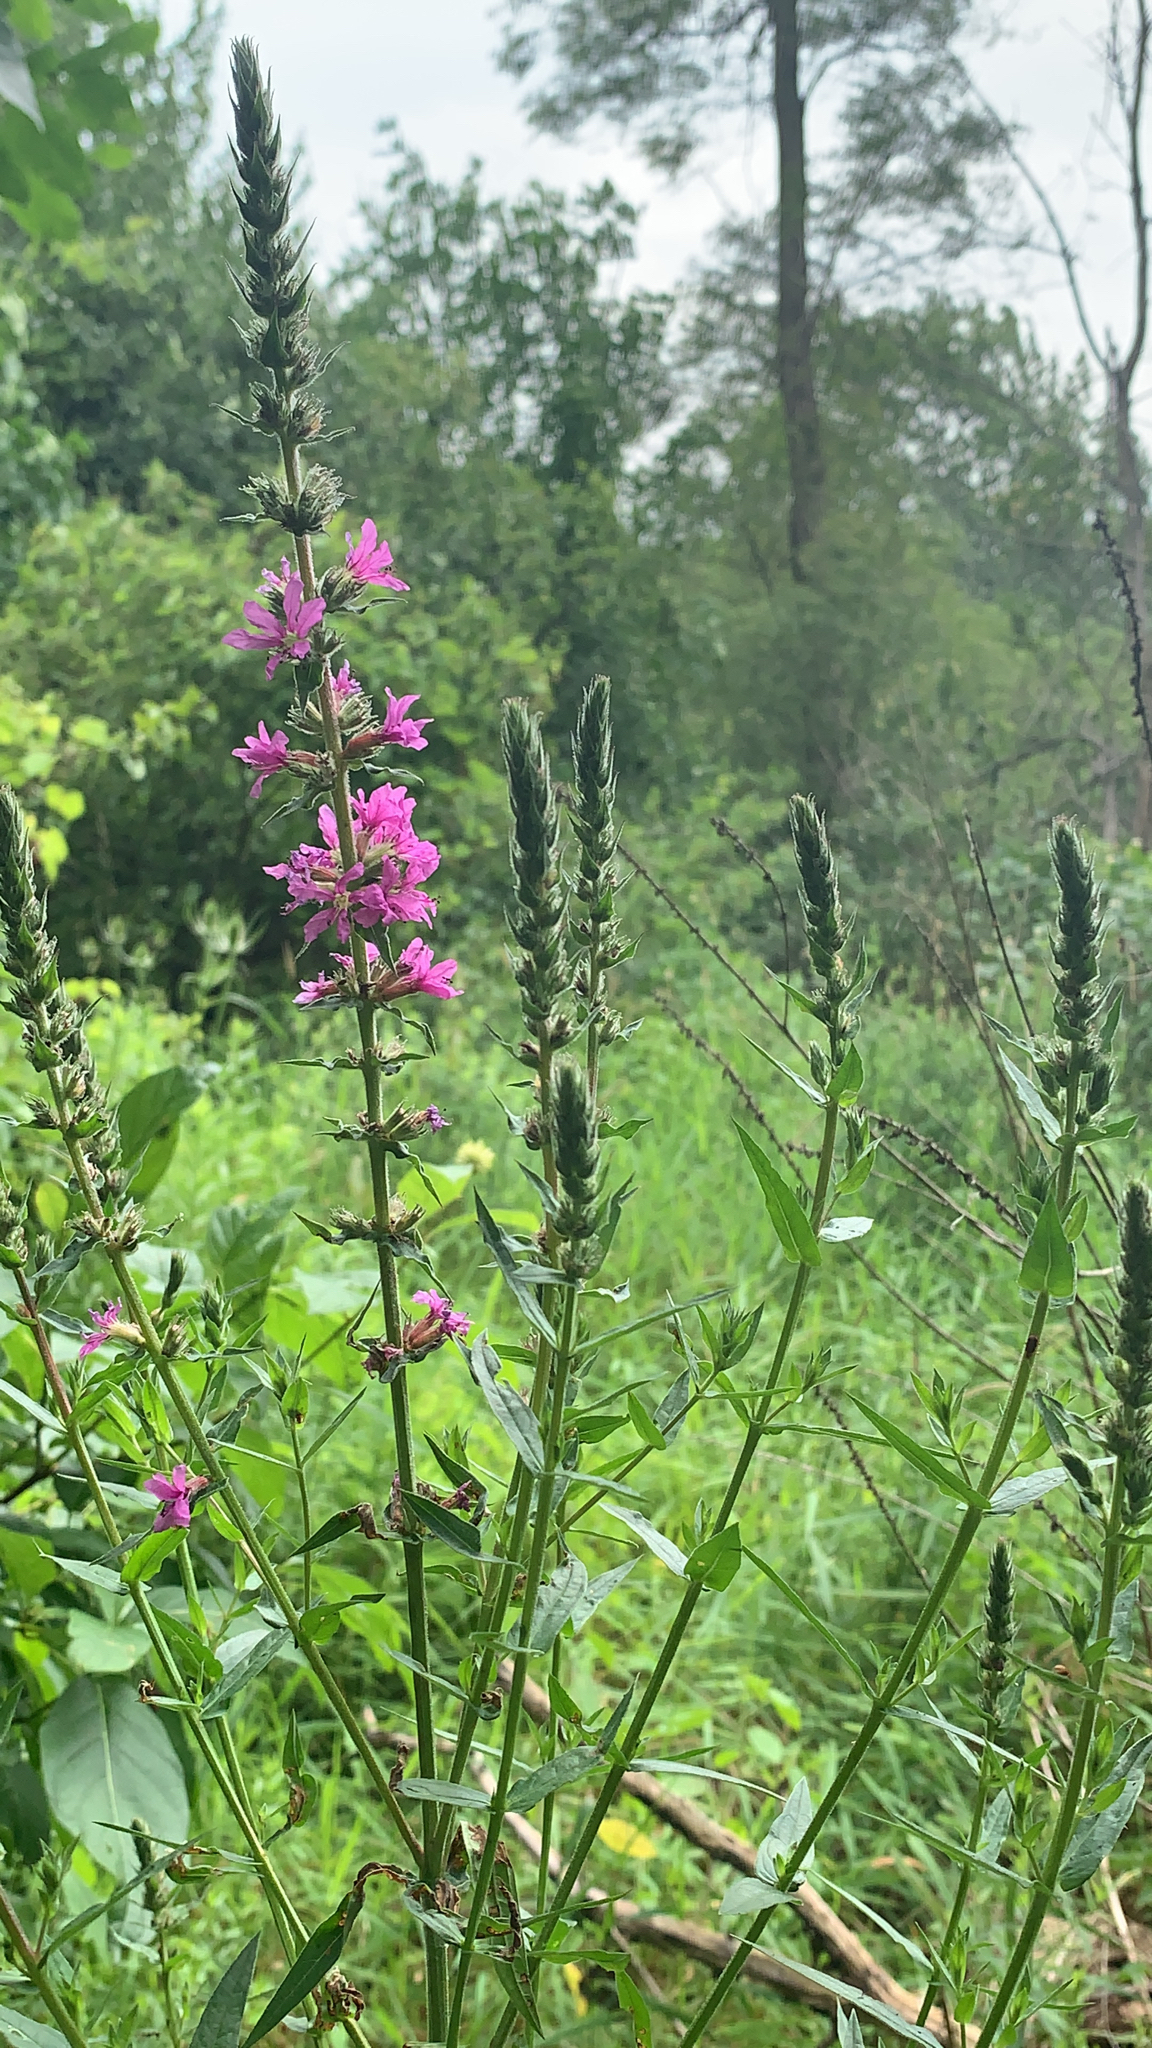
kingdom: Plantae
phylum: Tracheophyta
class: Magnoliopsida
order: Myrtales
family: Lythraceae
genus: Lythrum
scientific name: Lythrum salicaria
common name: Purple loosestrife
